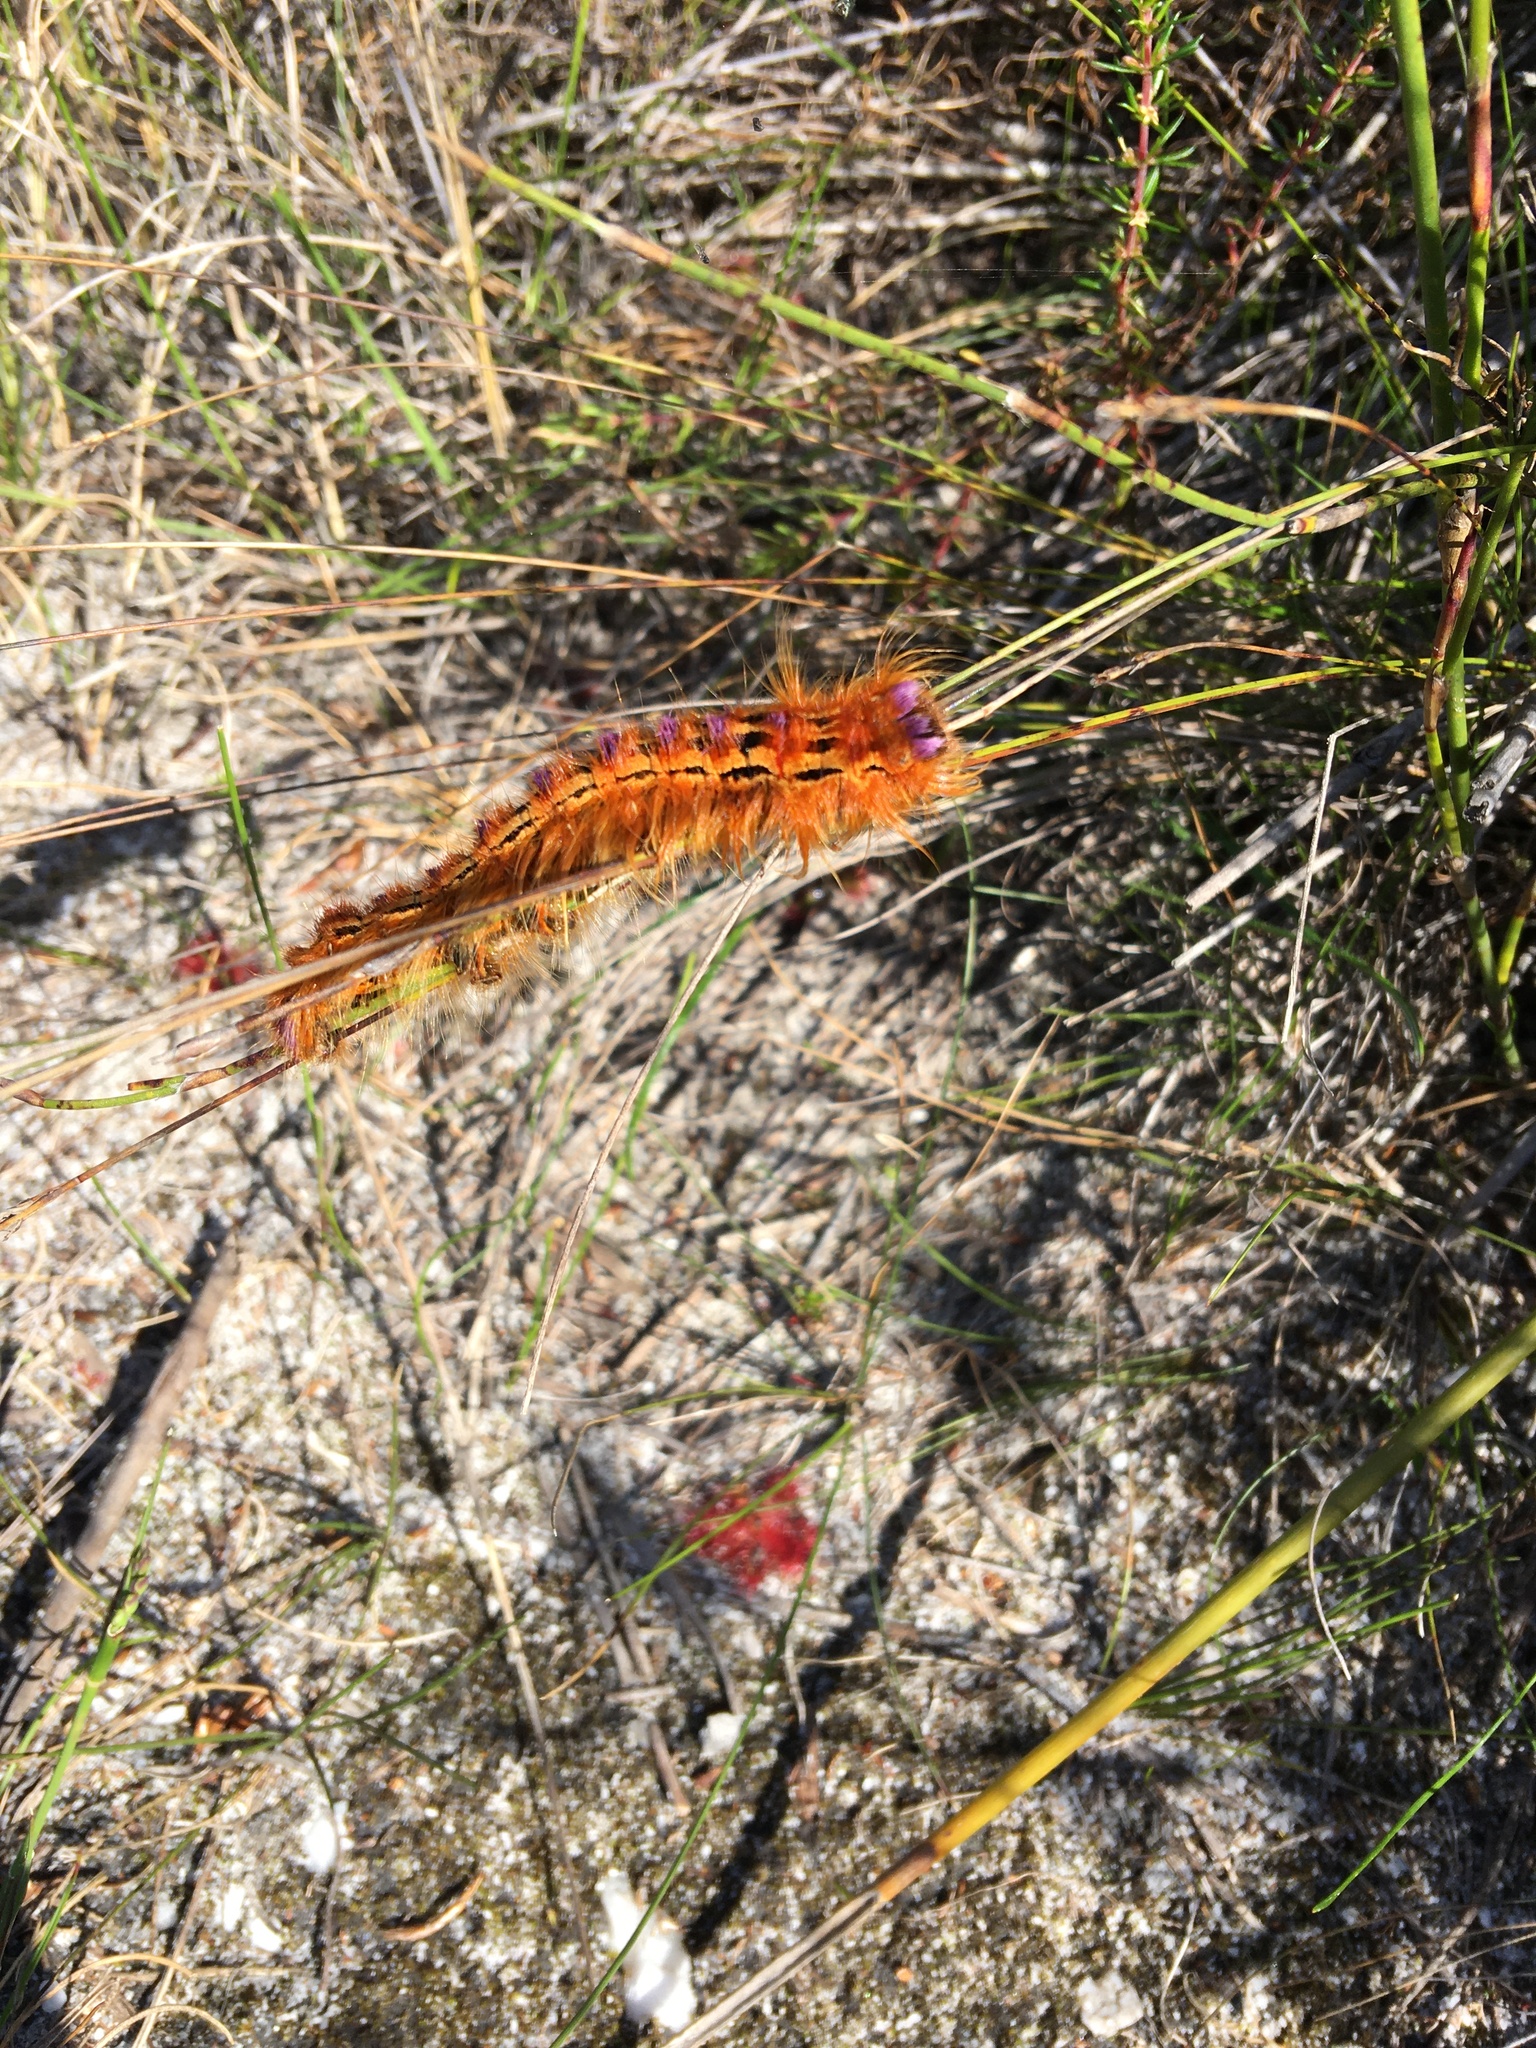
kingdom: Animalia
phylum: Arthropoda
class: Insecta
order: Lepidoptera
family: Lasiocampidae
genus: Eutricha
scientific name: Eutricha bifascia
